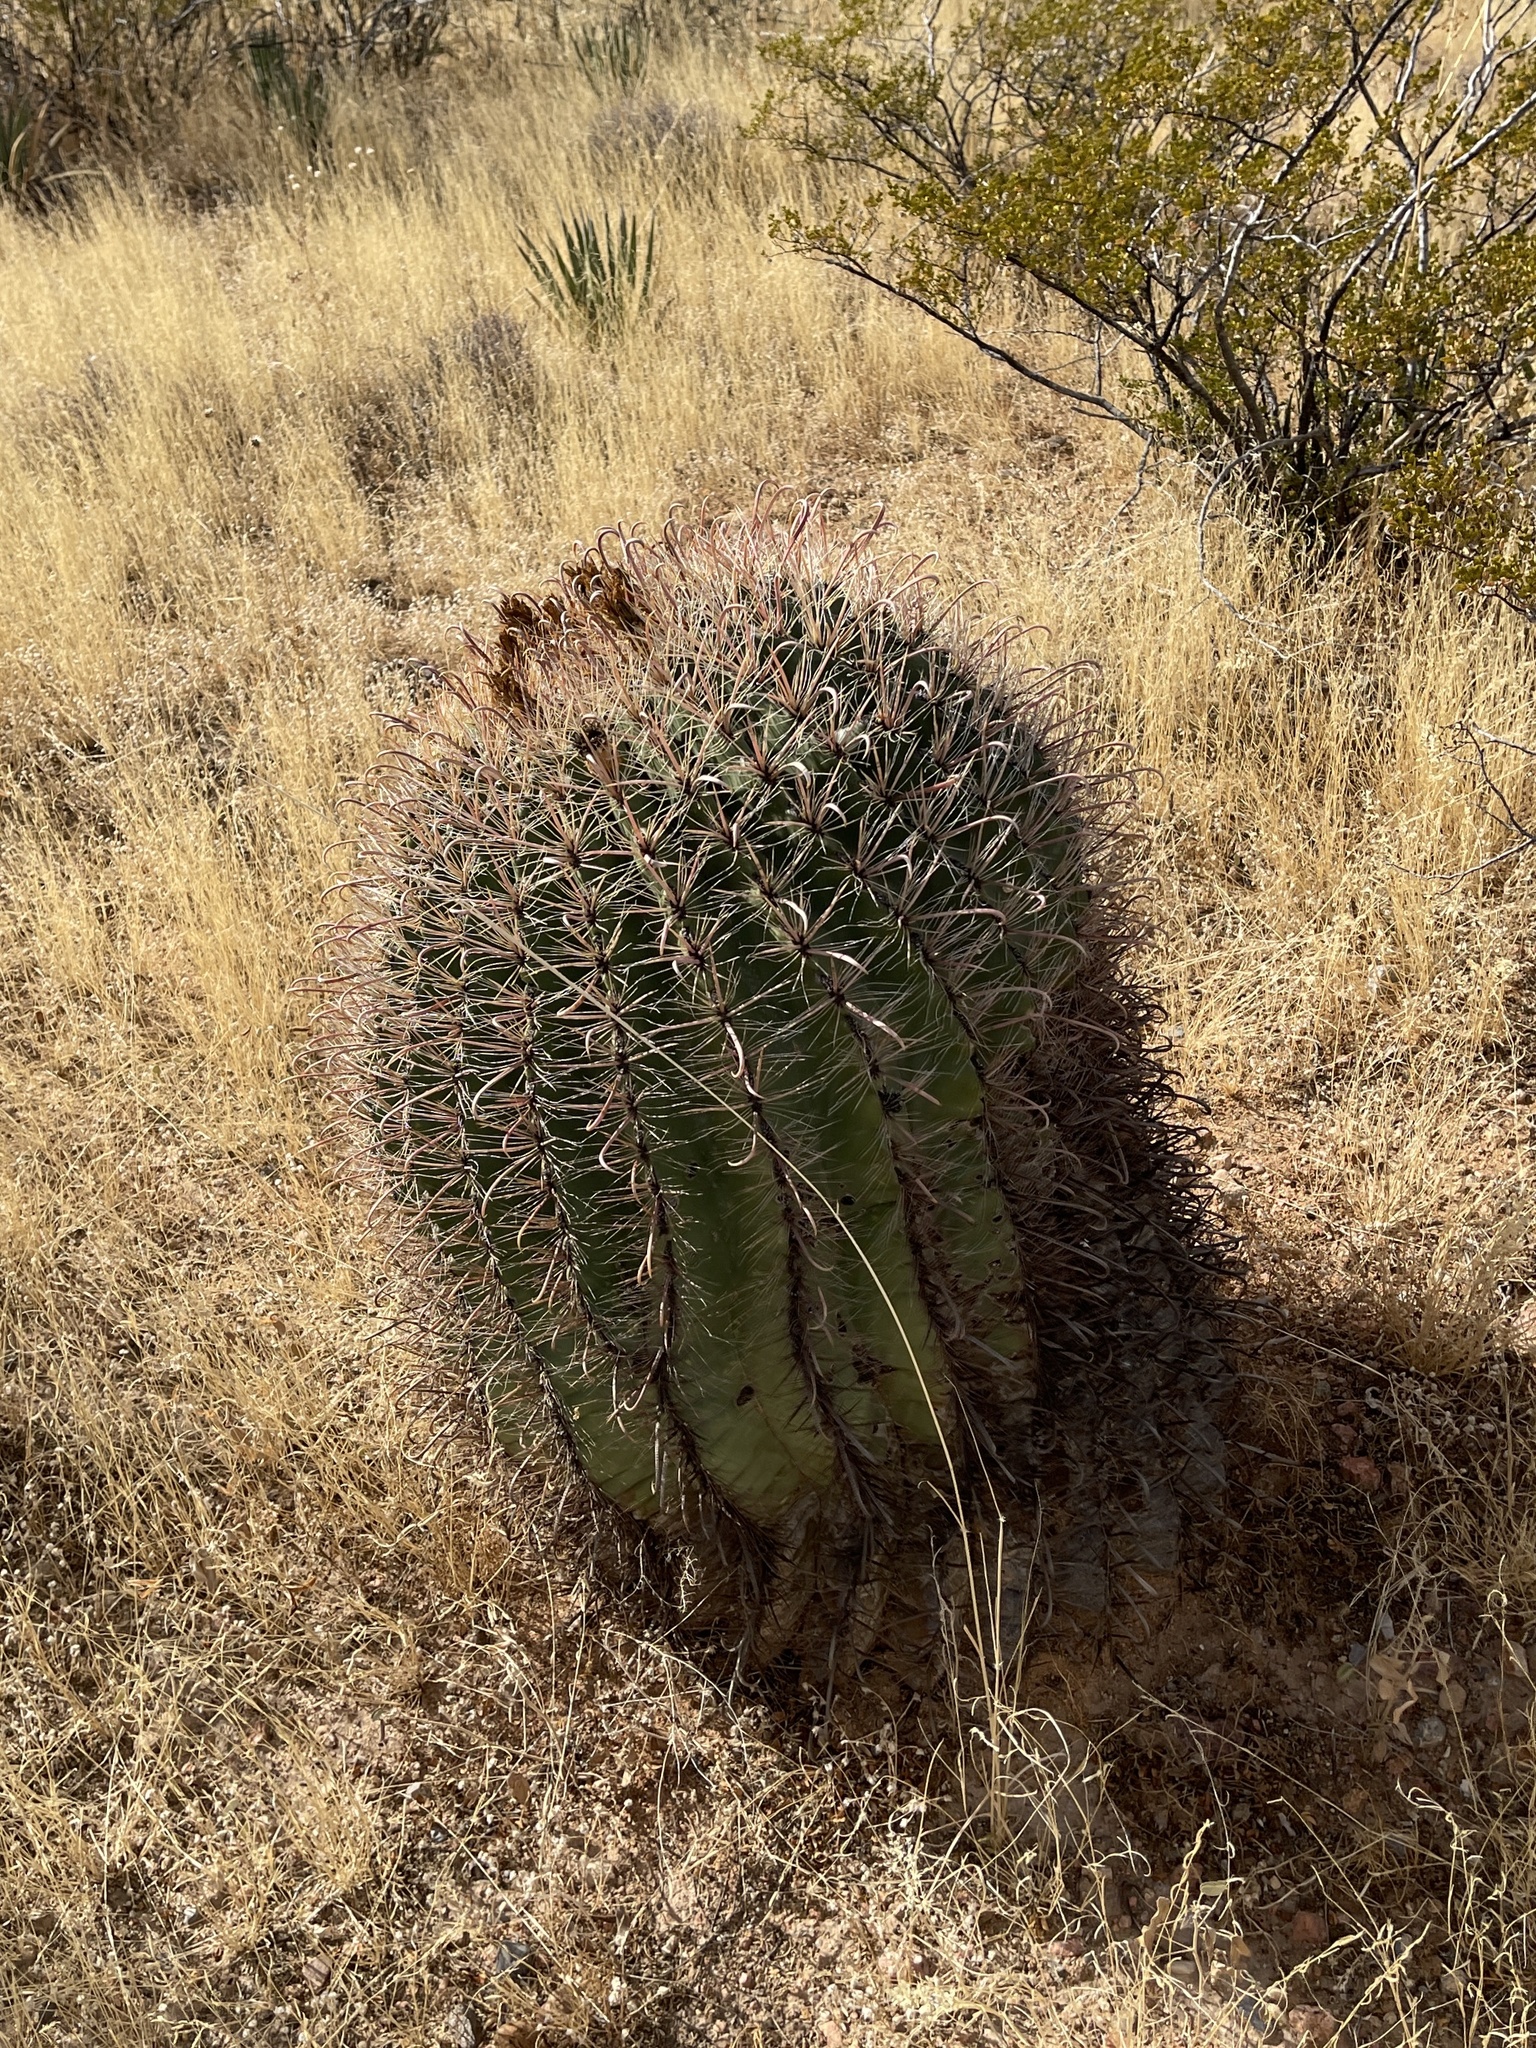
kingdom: Plantae
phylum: Tracheophyta
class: Magnoliopsida
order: Caryophyllales
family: Cactaceae
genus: Ferocactus
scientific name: Ferocactus wislizeni
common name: Candy barrel cactus
